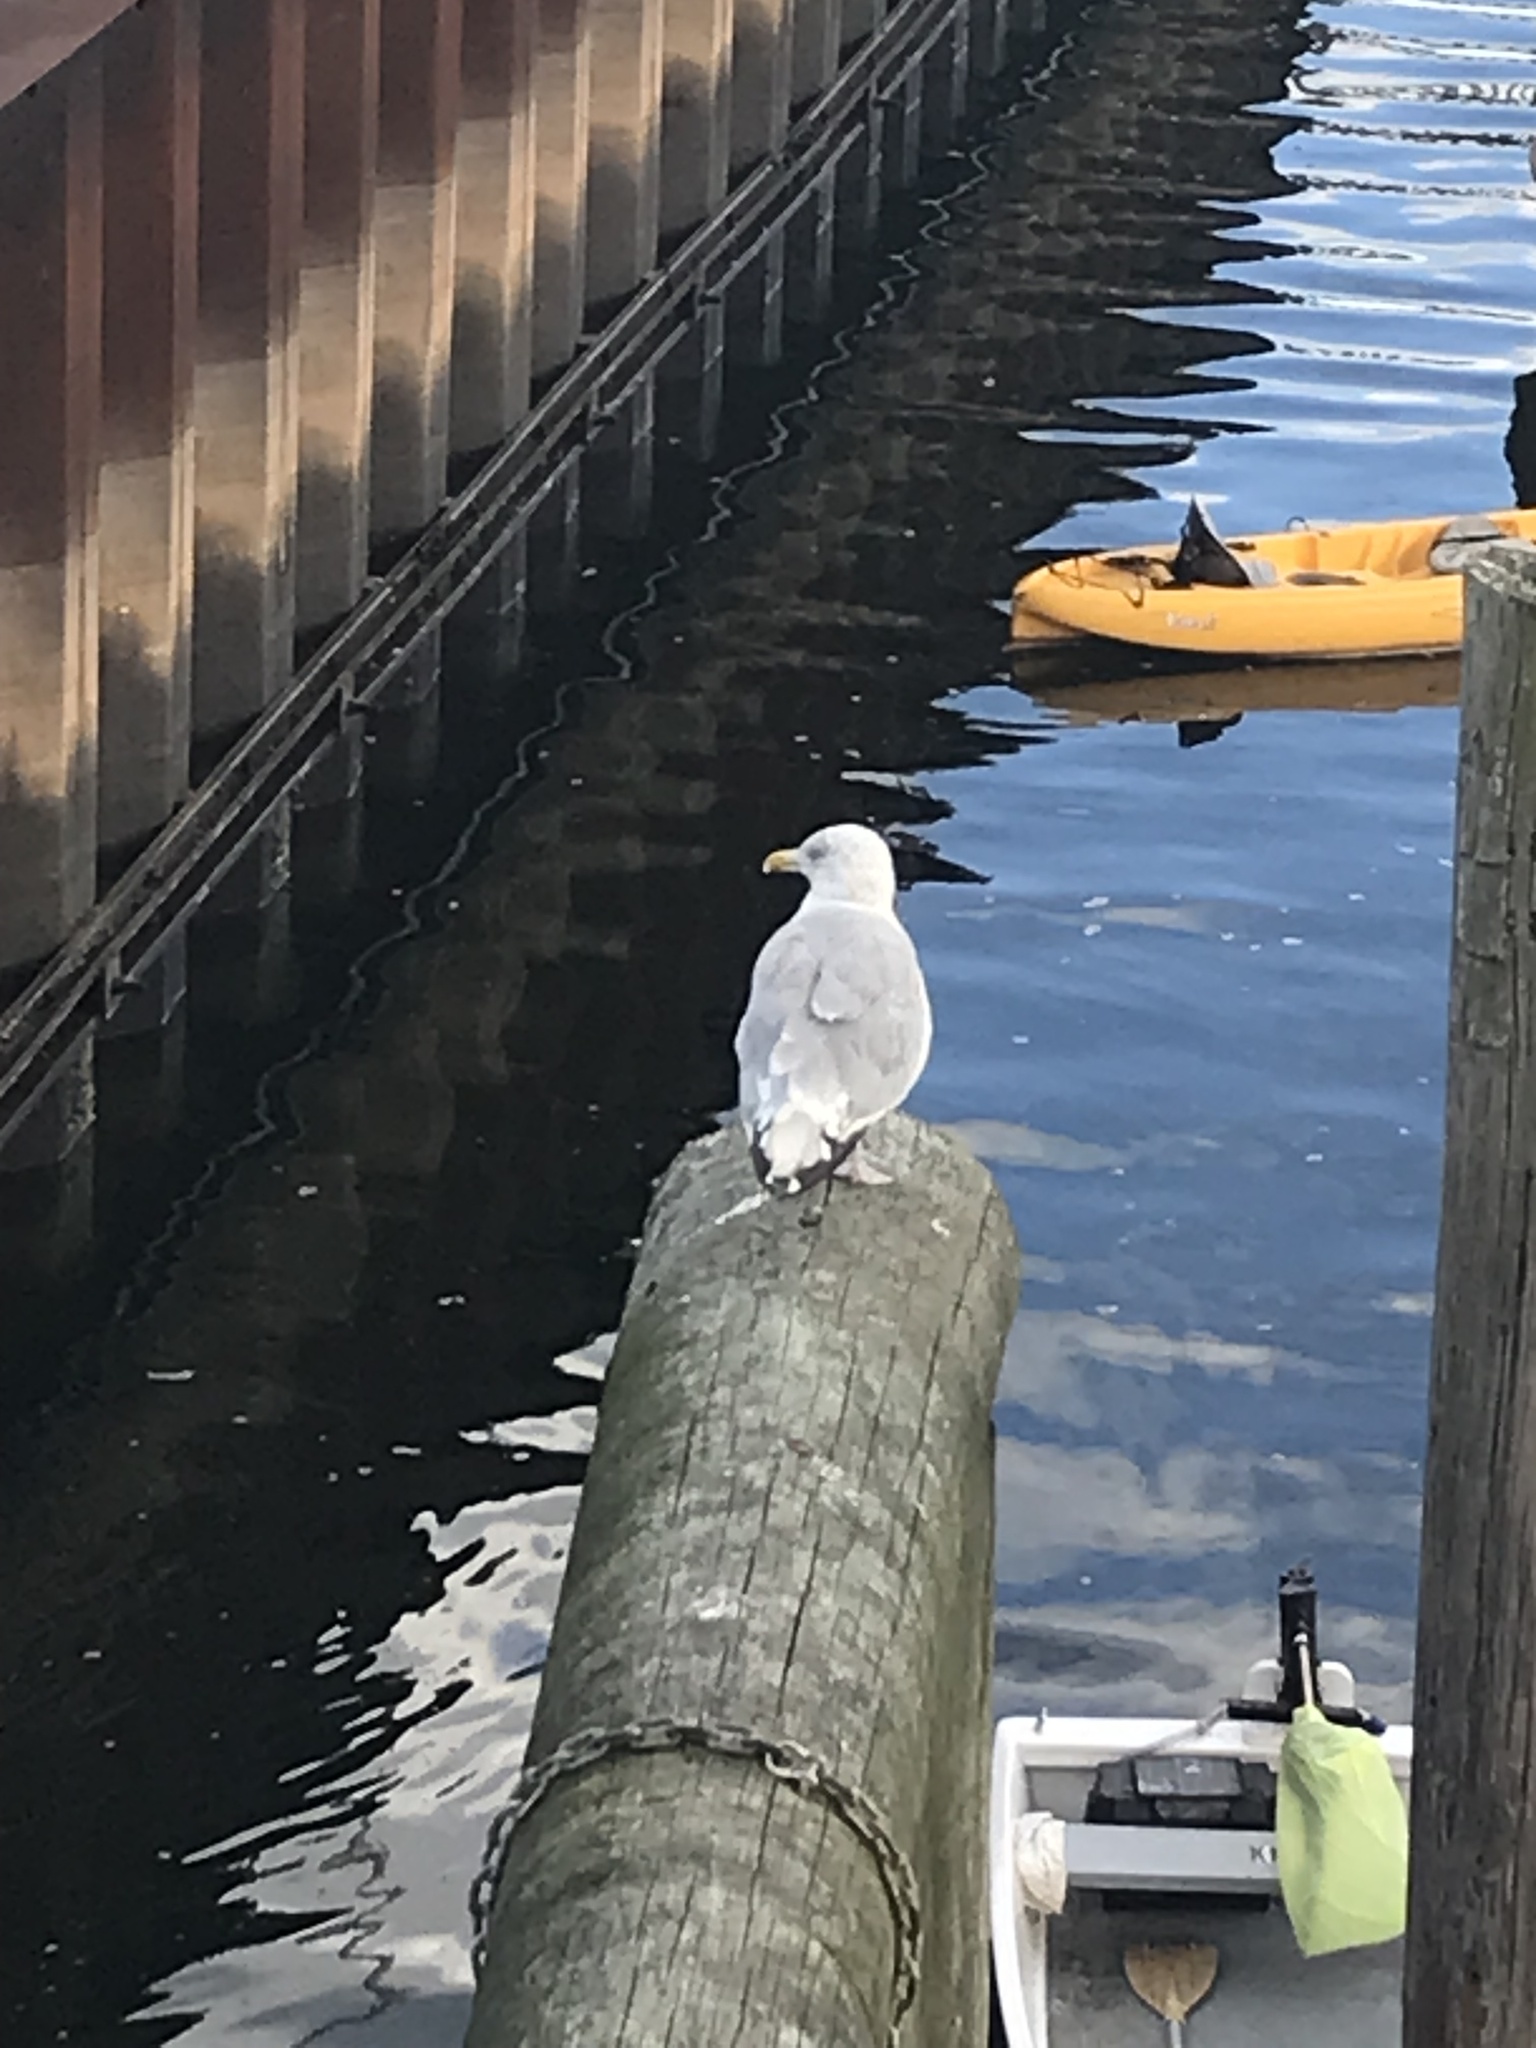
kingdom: Animalia
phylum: Chordata
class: Aves
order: Charadriiformes
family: Laridae
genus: Larus
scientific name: Larus argentatus
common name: Herring gull
